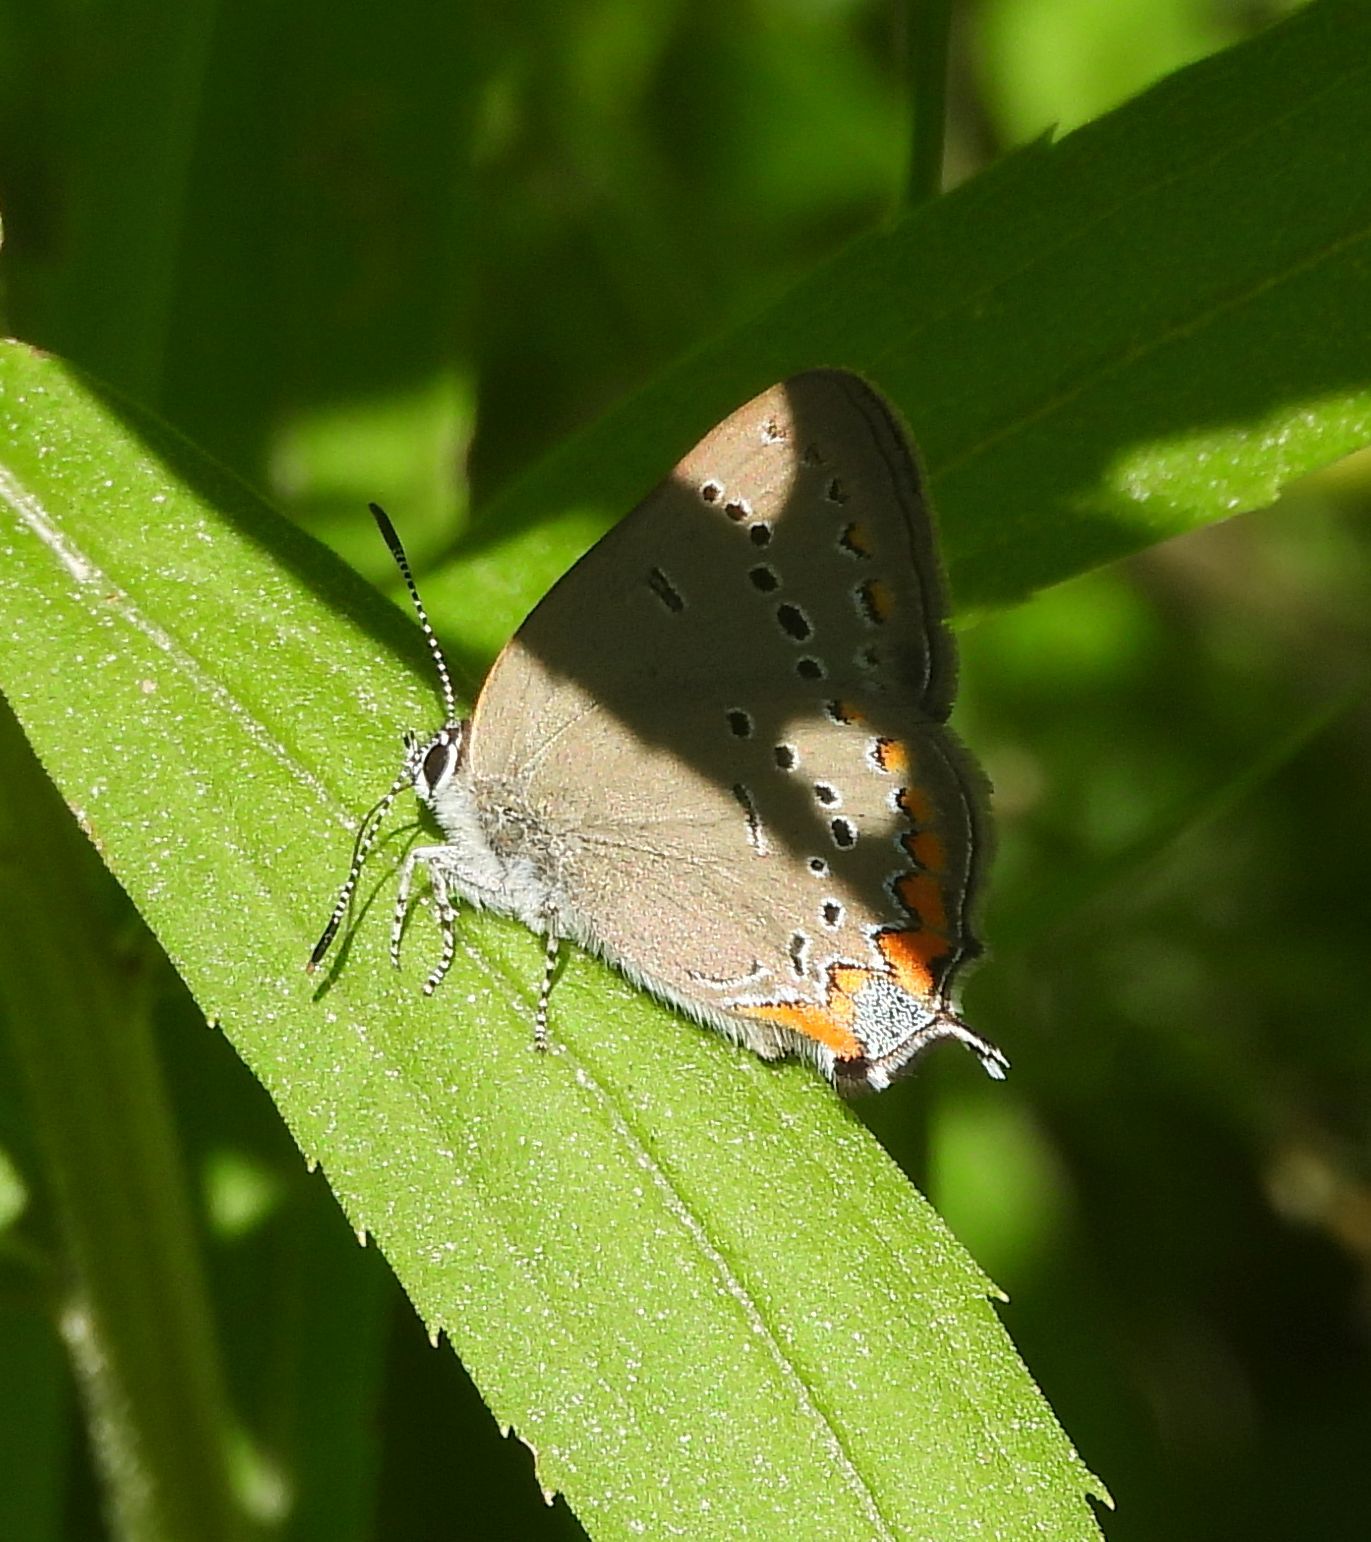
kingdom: Animalia
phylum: Arthropoda
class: Insecta
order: Lepidoptera
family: Lycaenidae
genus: Strymon
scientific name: Strymon acadica
